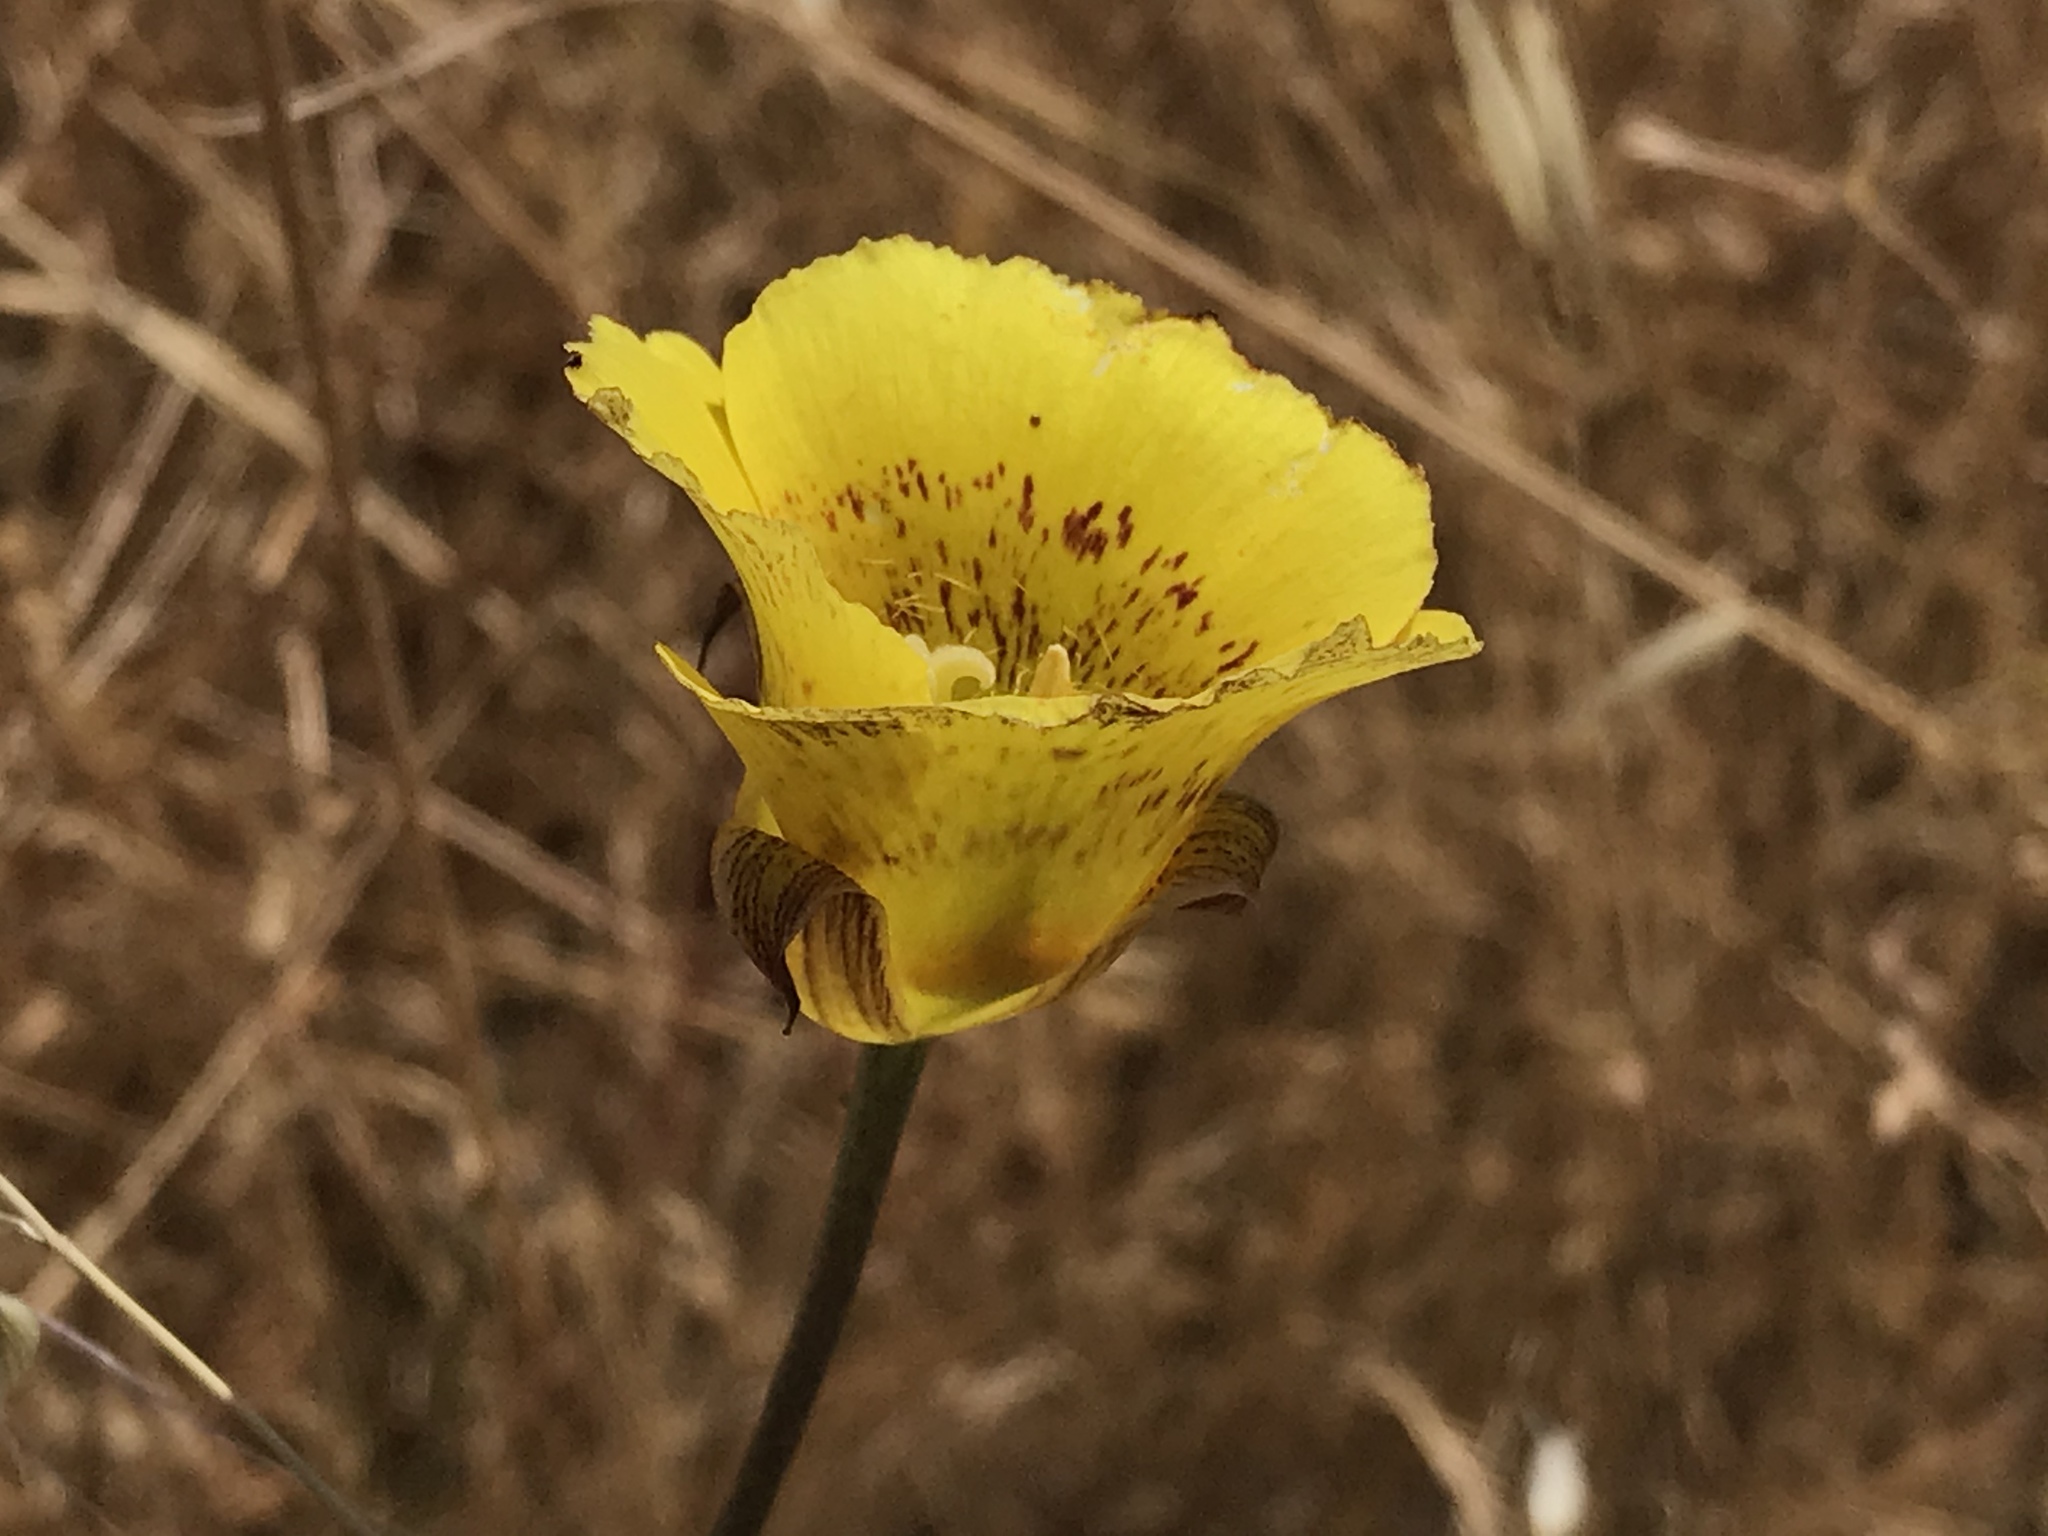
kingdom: Plantae
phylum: Tracheophyta
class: Liliopsida
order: Liliales
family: Liliaceae
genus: Calochortus
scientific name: Calochortus luteus
